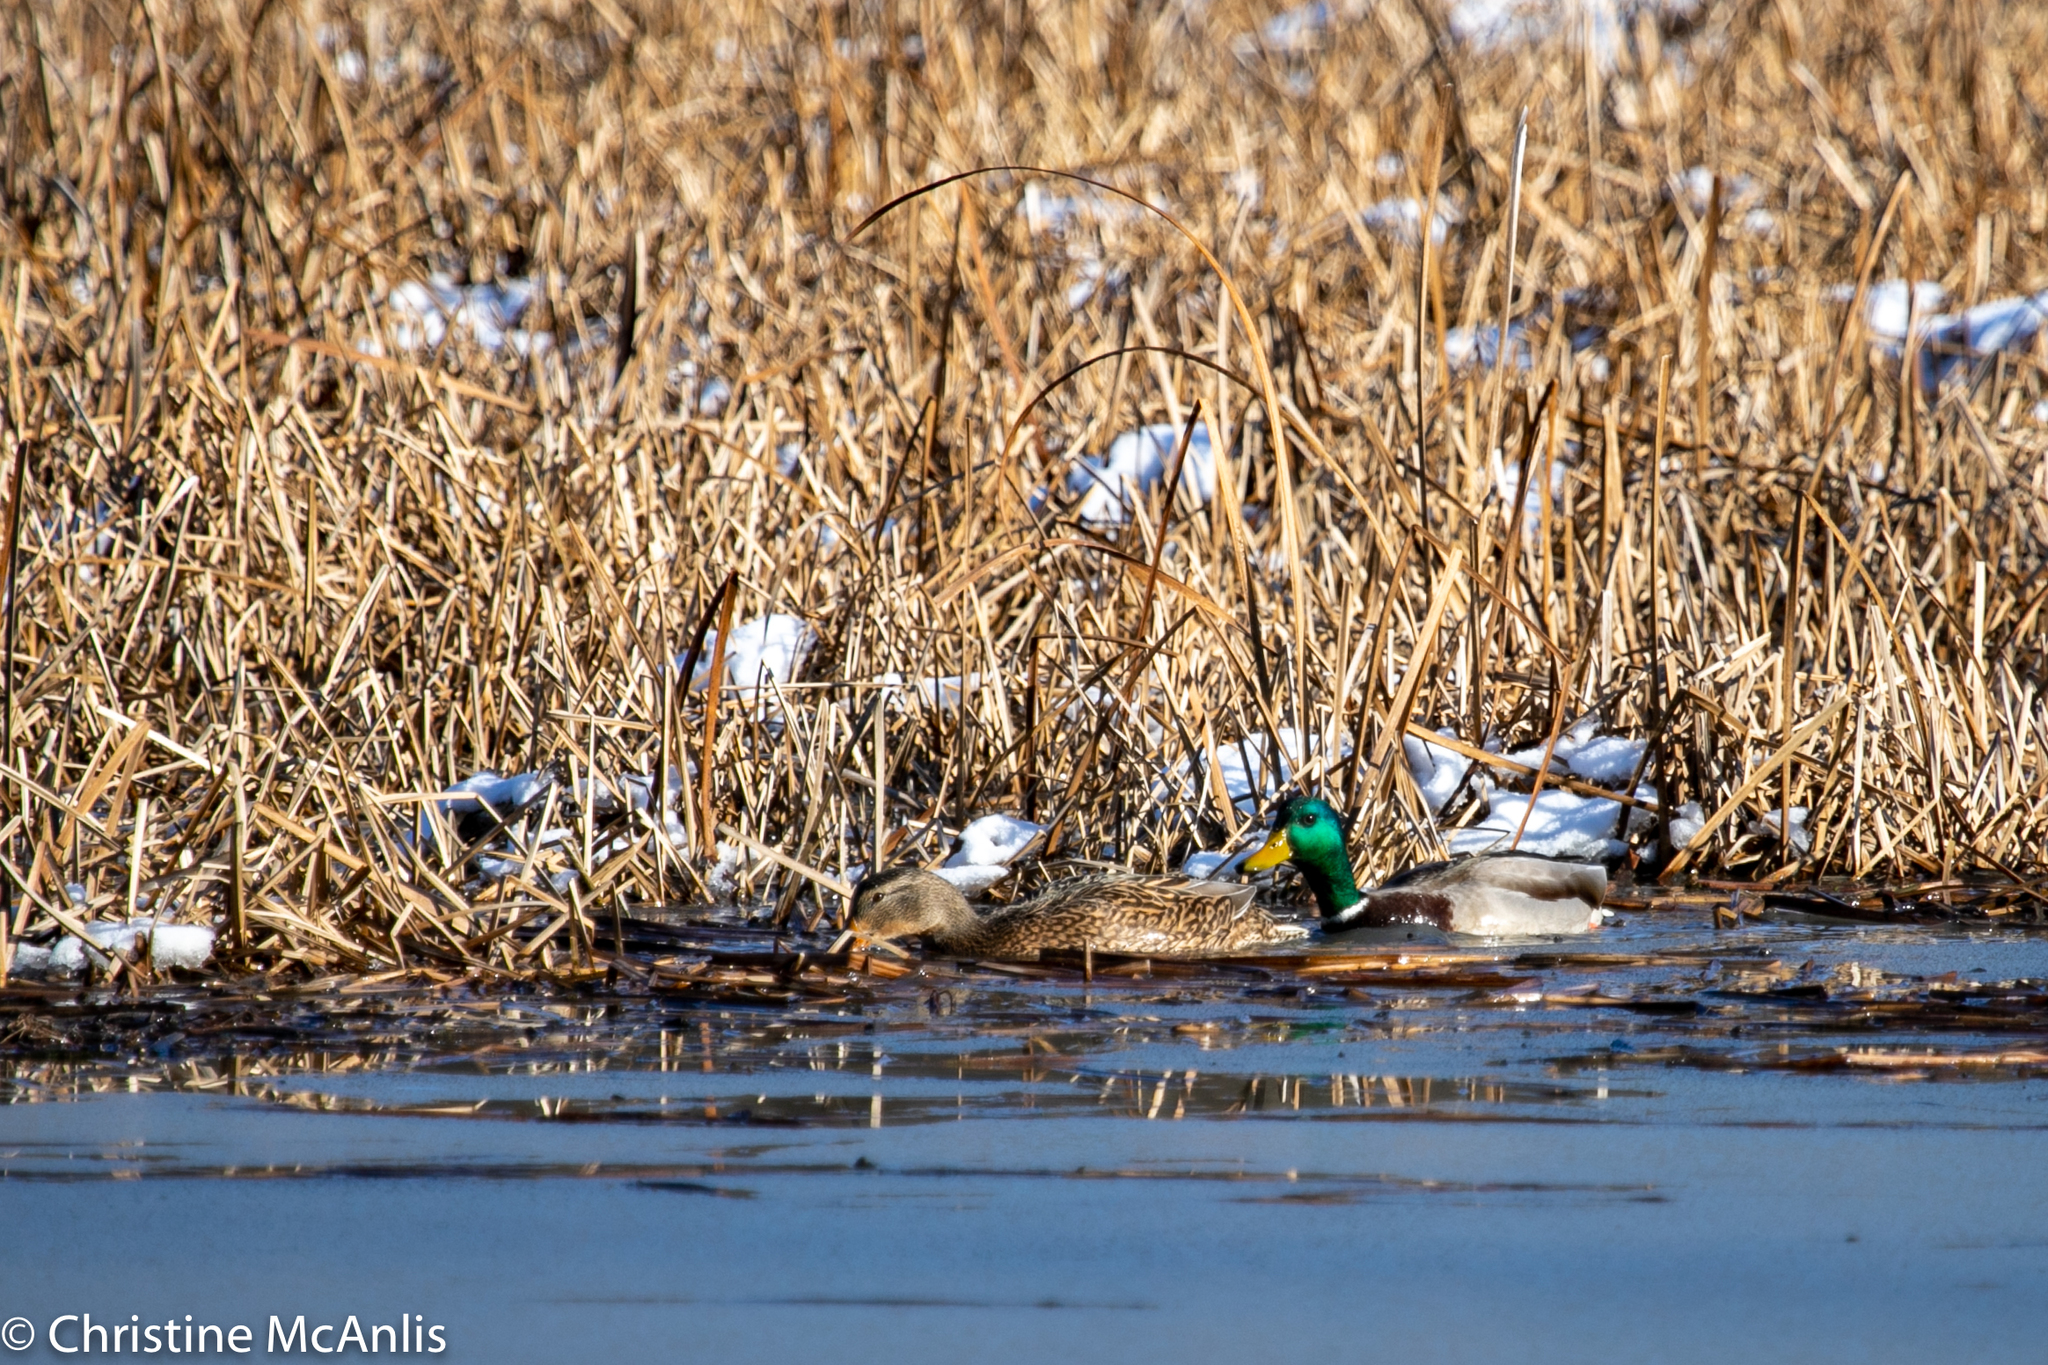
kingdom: Animalia
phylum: Chordata
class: Aves
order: Anseriformes
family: Anatidae
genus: Anas
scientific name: Anas platyrhynchos
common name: Mallard
